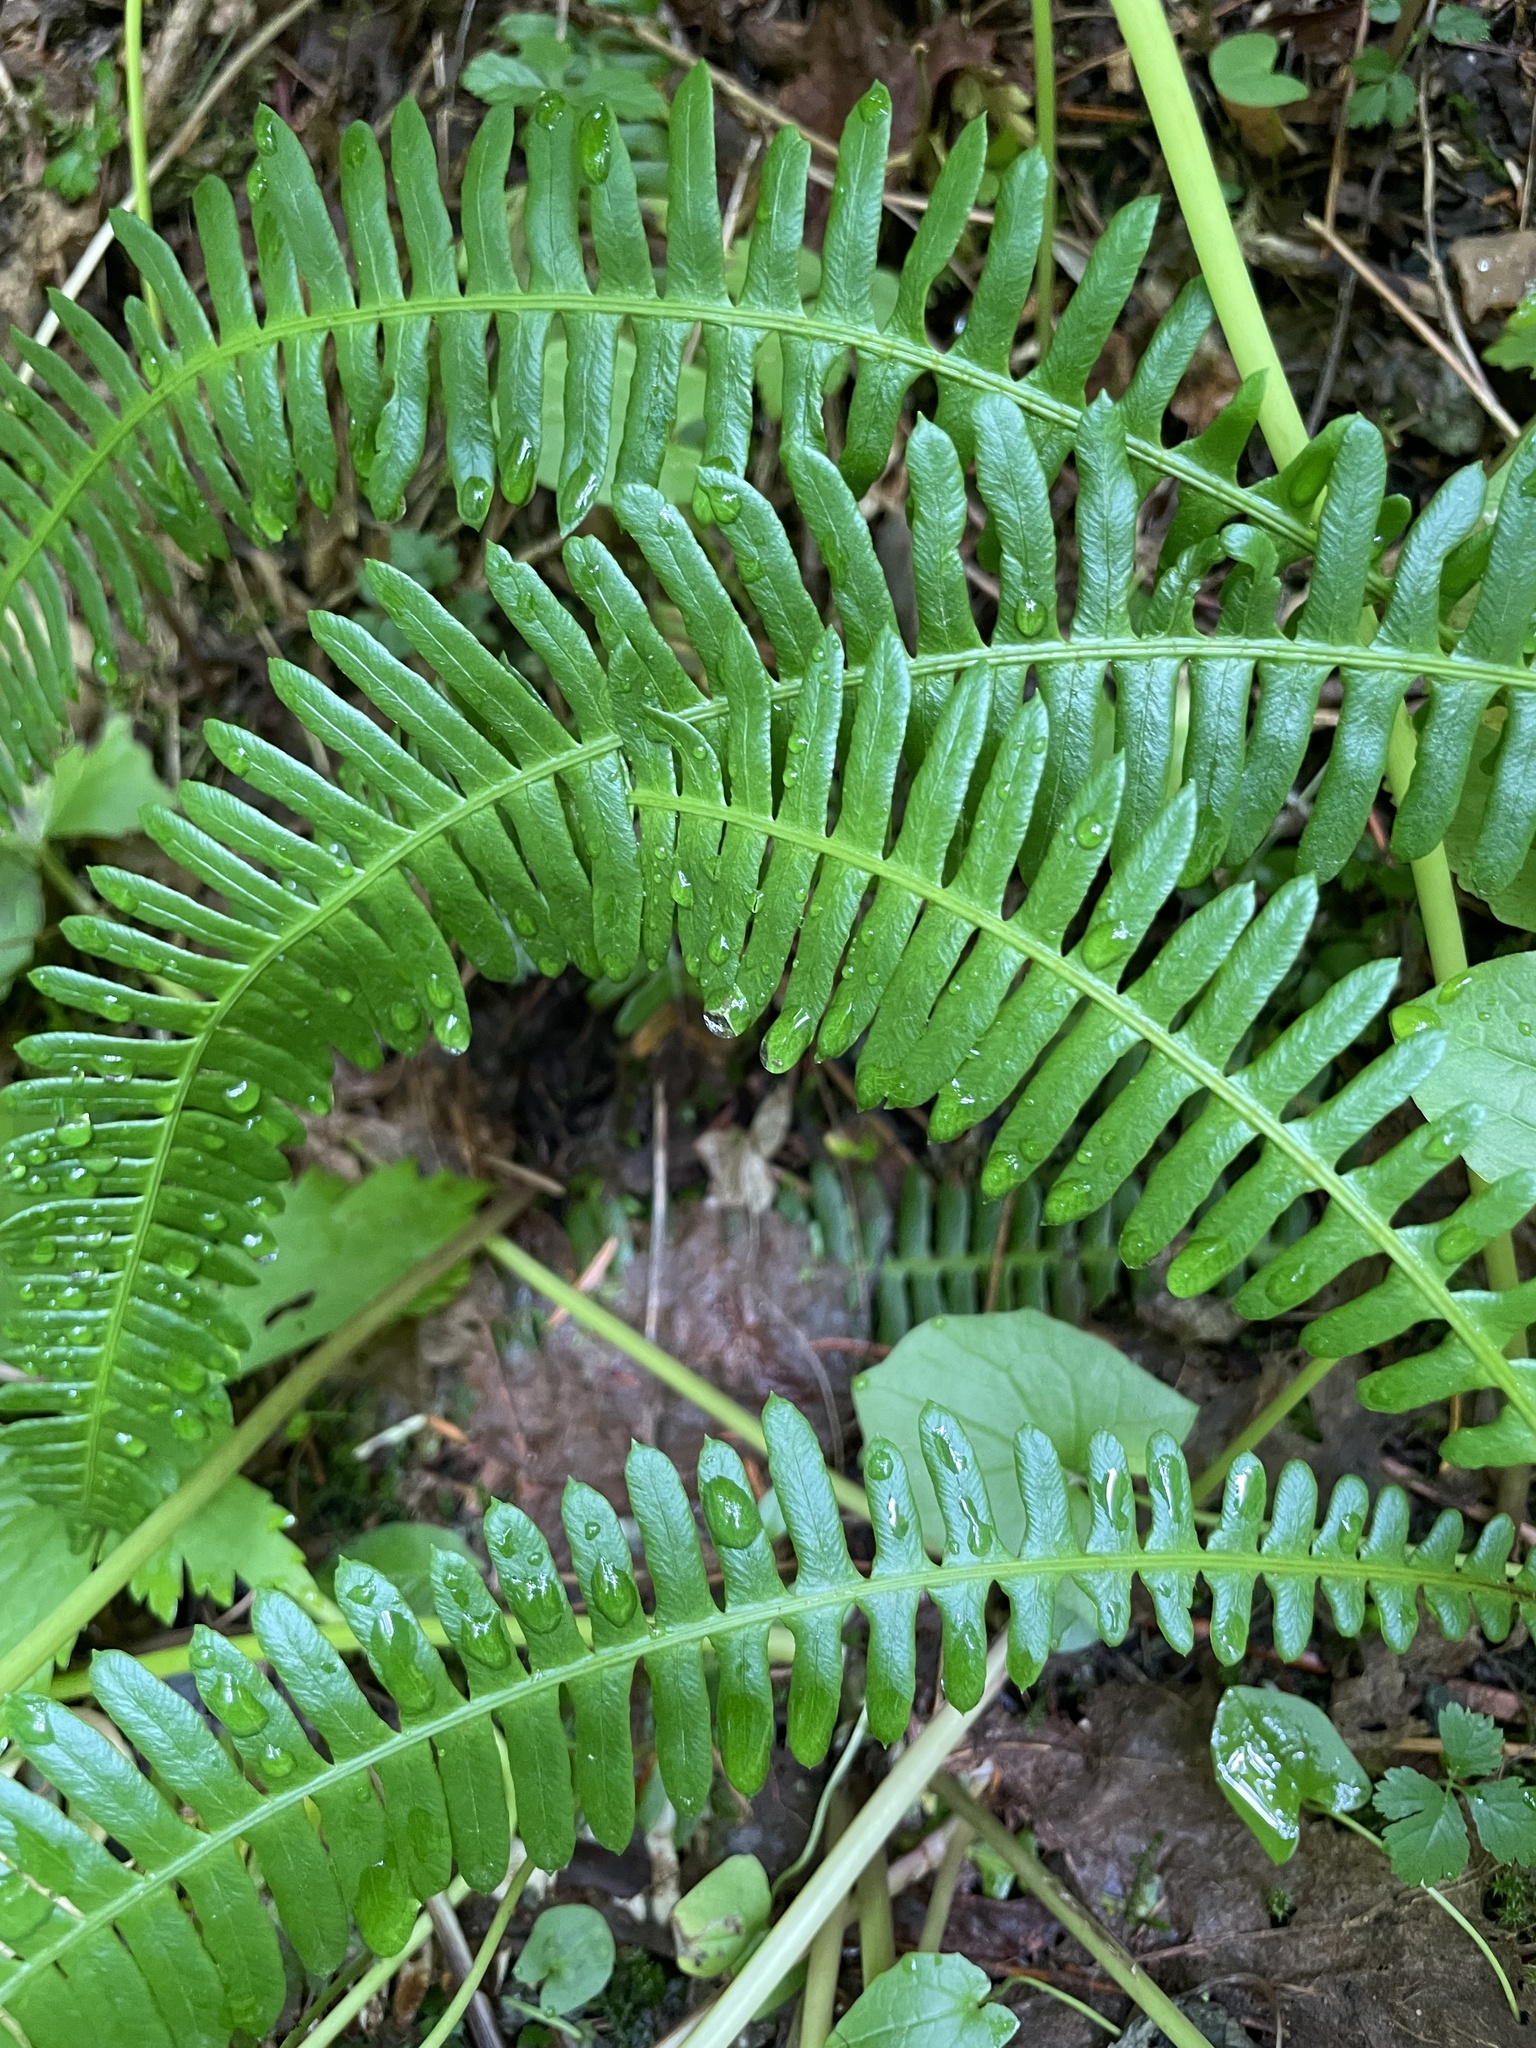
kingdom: Plantae
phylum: Tracheophyta
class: Polypodiopsida
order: Polypodiales
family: Blechnaceae
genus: Struthiopteris
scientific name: Struthiopteris spicant
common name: Deer fern
